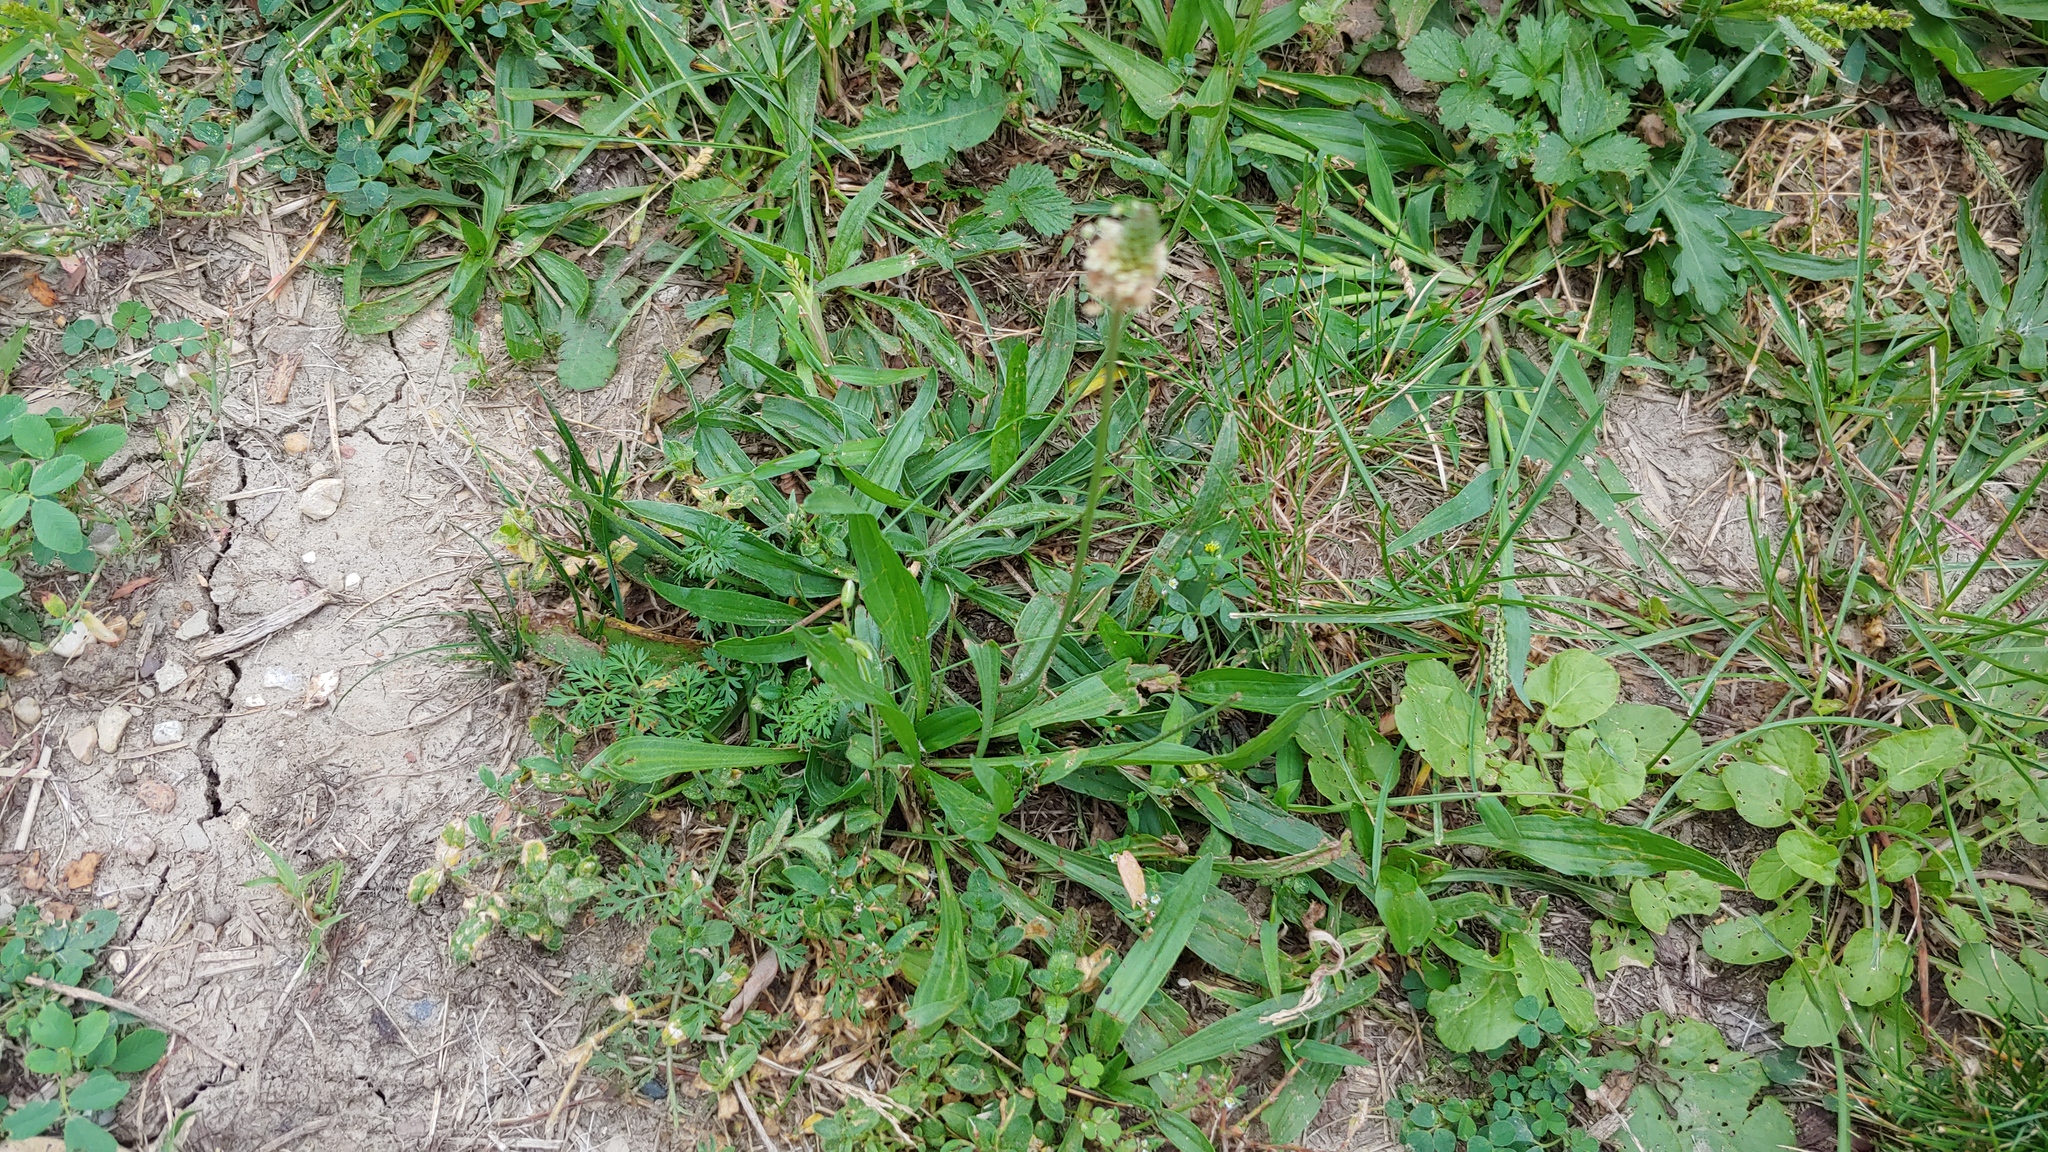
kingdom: Plantae
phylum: Tracheophyta
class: Magnoliopsida
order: Lamiales
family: Plantaginaceae
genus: Plantago
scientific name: Plantago lanceolata
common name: Ribwort plantain
